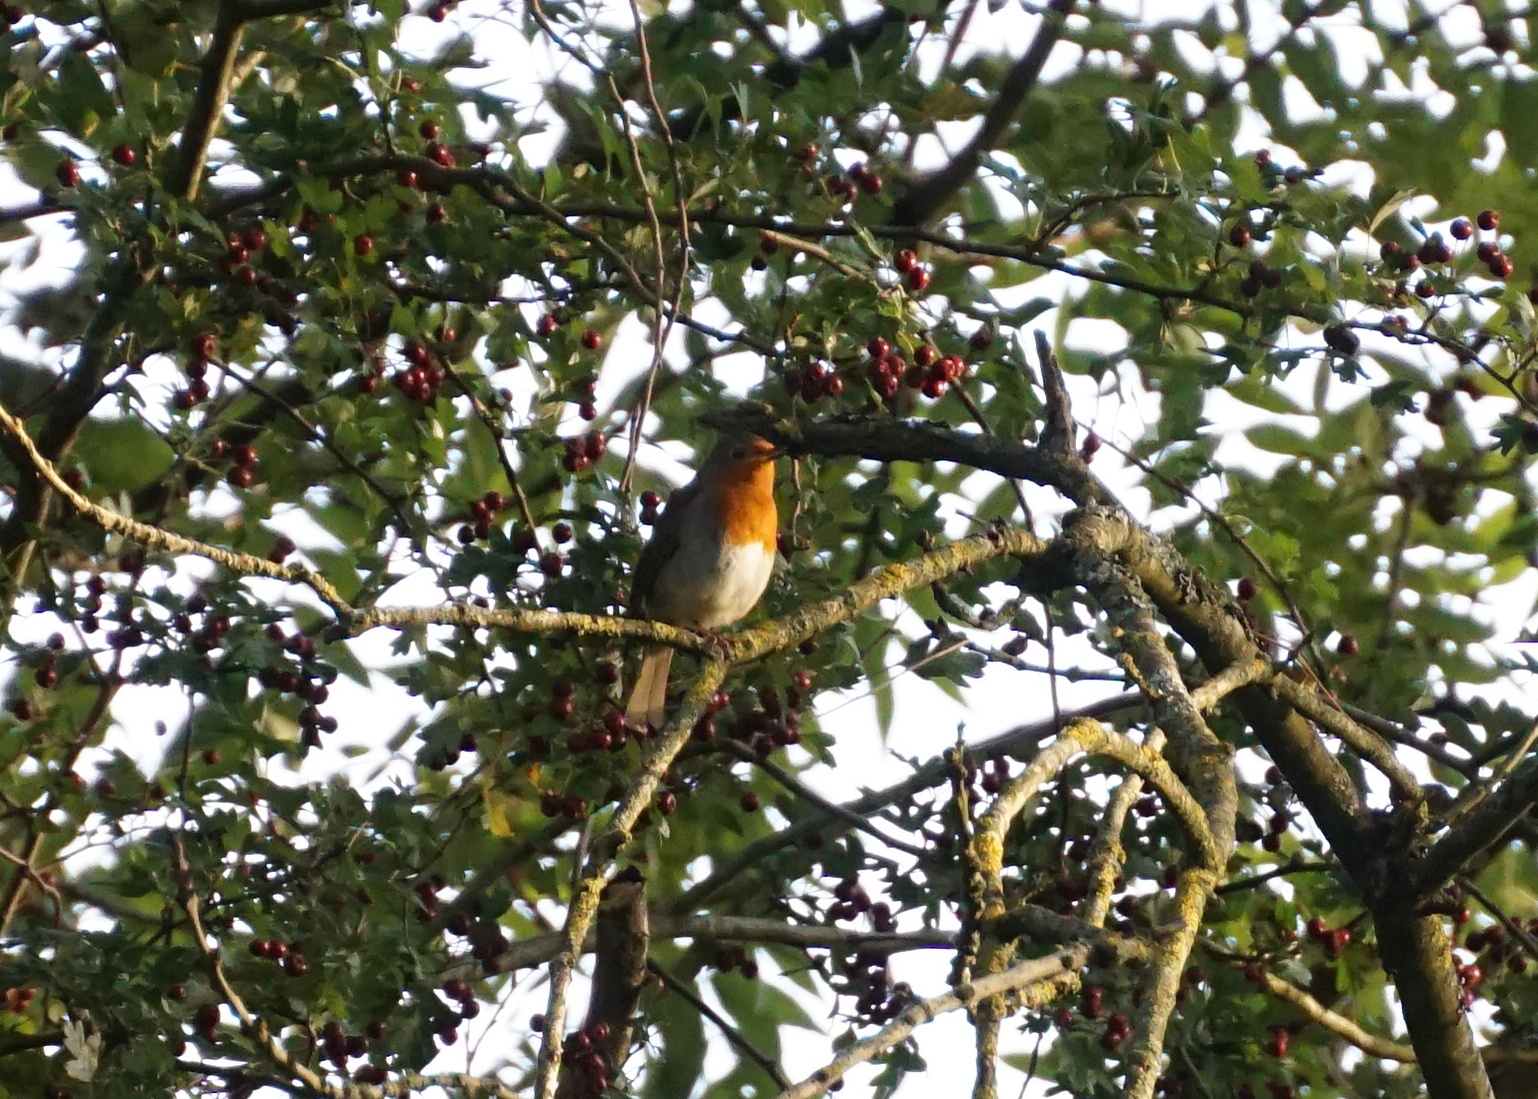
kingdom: Animalia
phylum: Chordata
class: Aves
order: Passeriformes
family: Muscicapidae
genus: Erithacus
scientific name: Erithacus rubecula
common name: European robin
